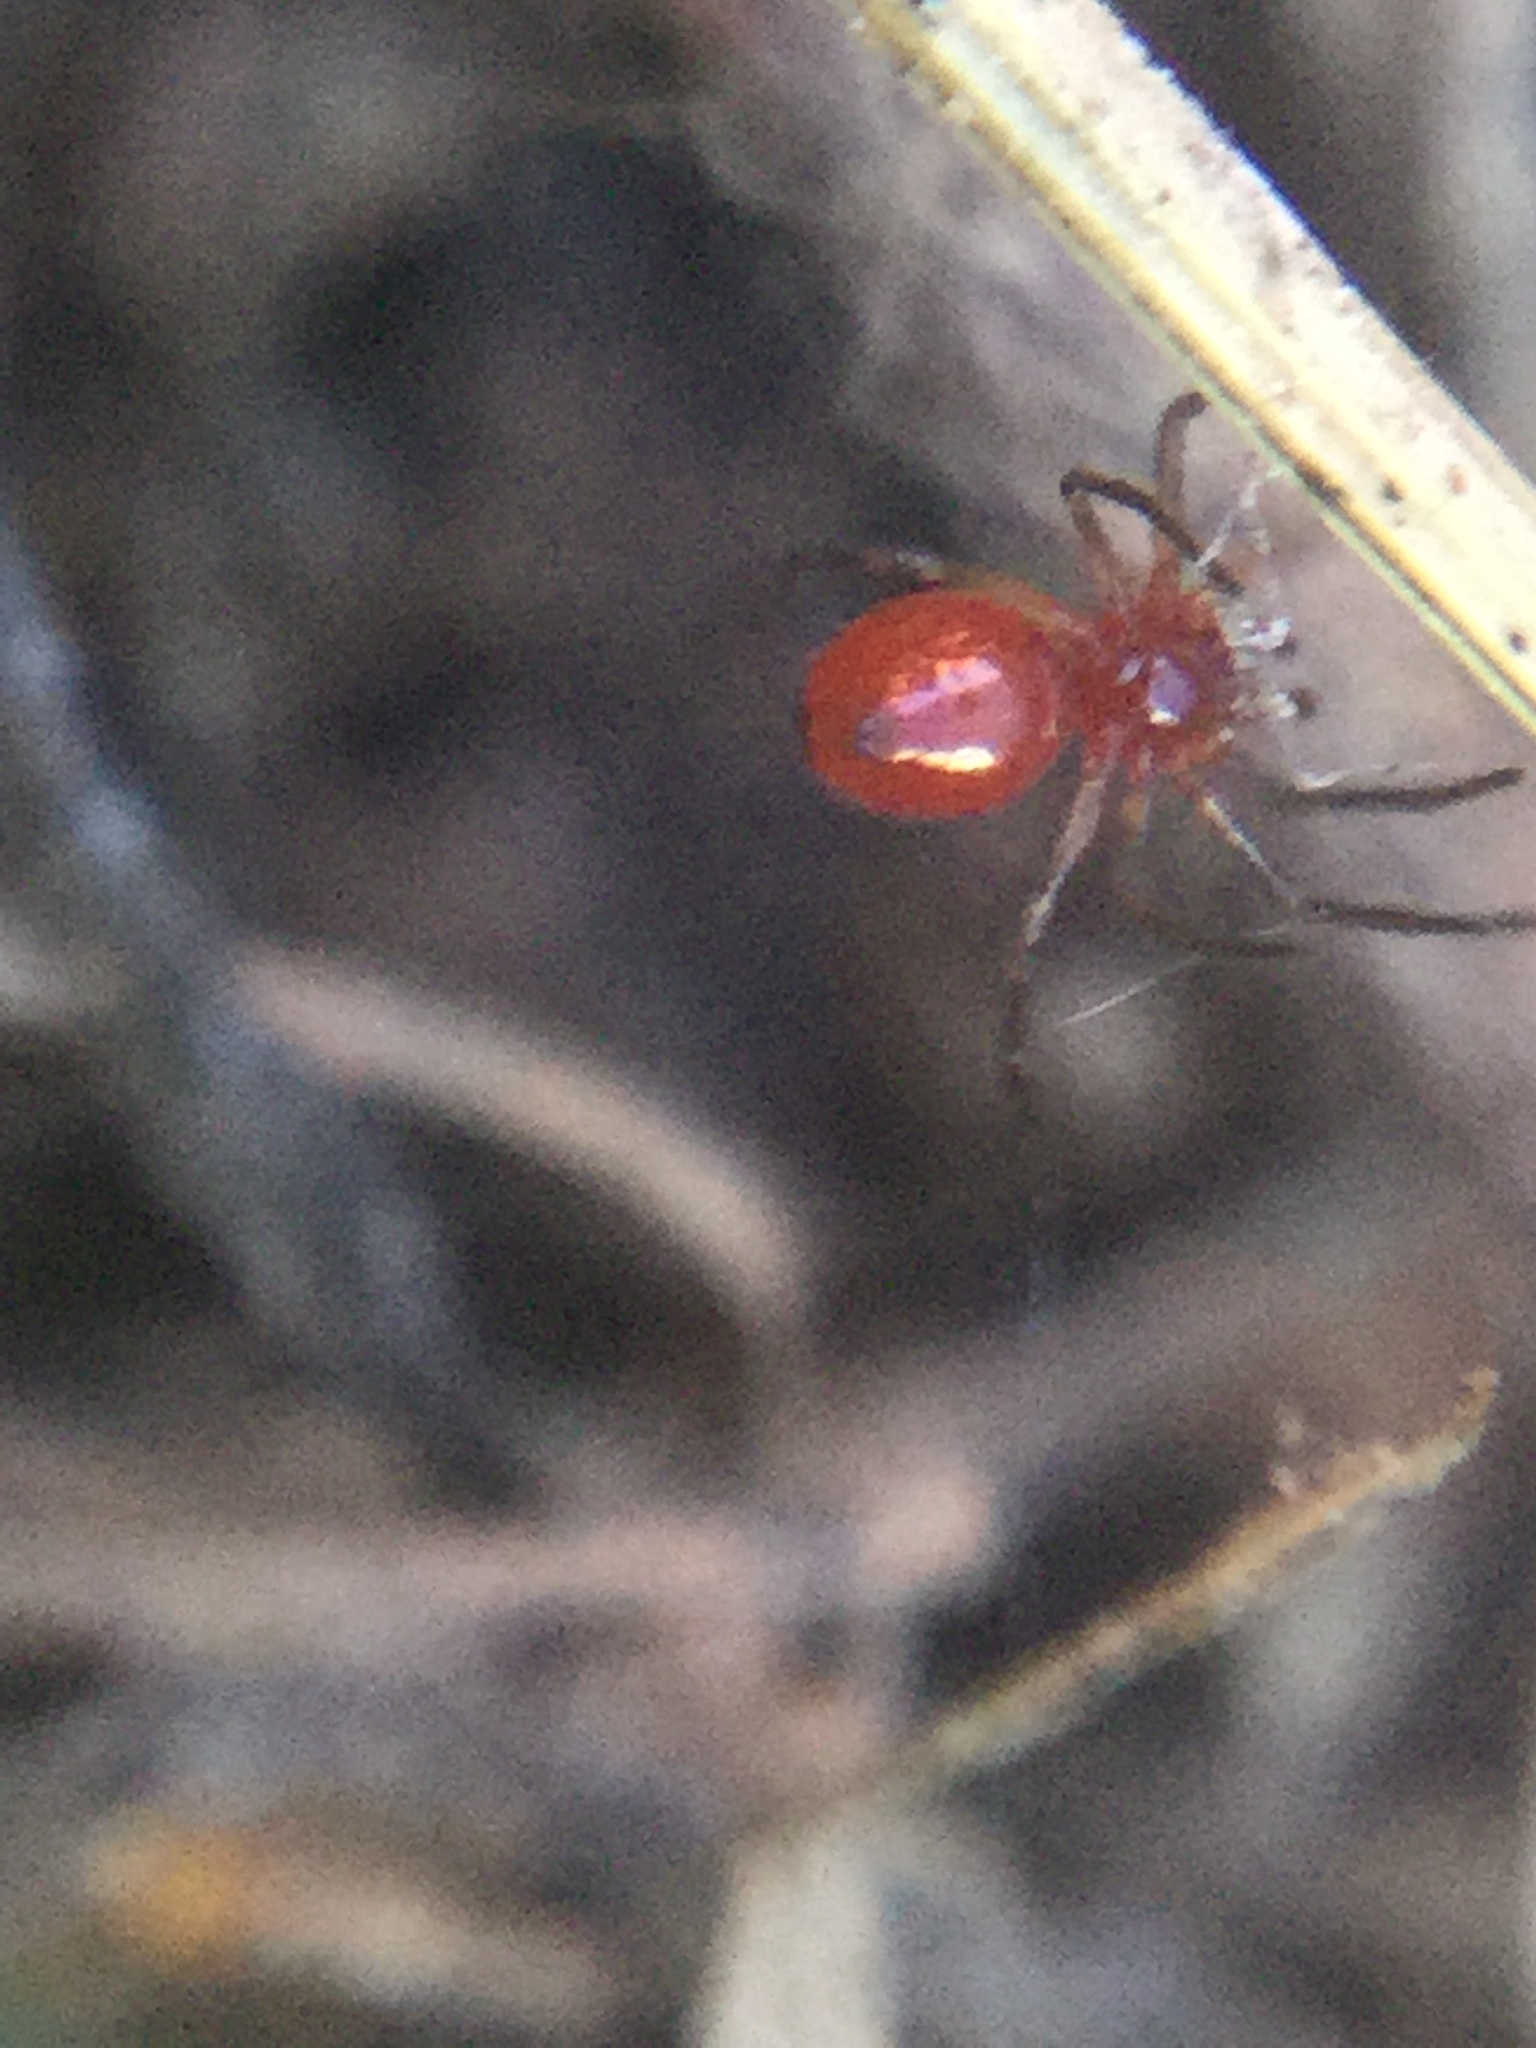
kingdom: Animalia
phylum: Arthropoda
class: Arachnida
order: Araneae
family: Linyphiidae
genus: Florinda
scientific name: Florinda coccinea
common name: Black-tailed red sheetweaver
